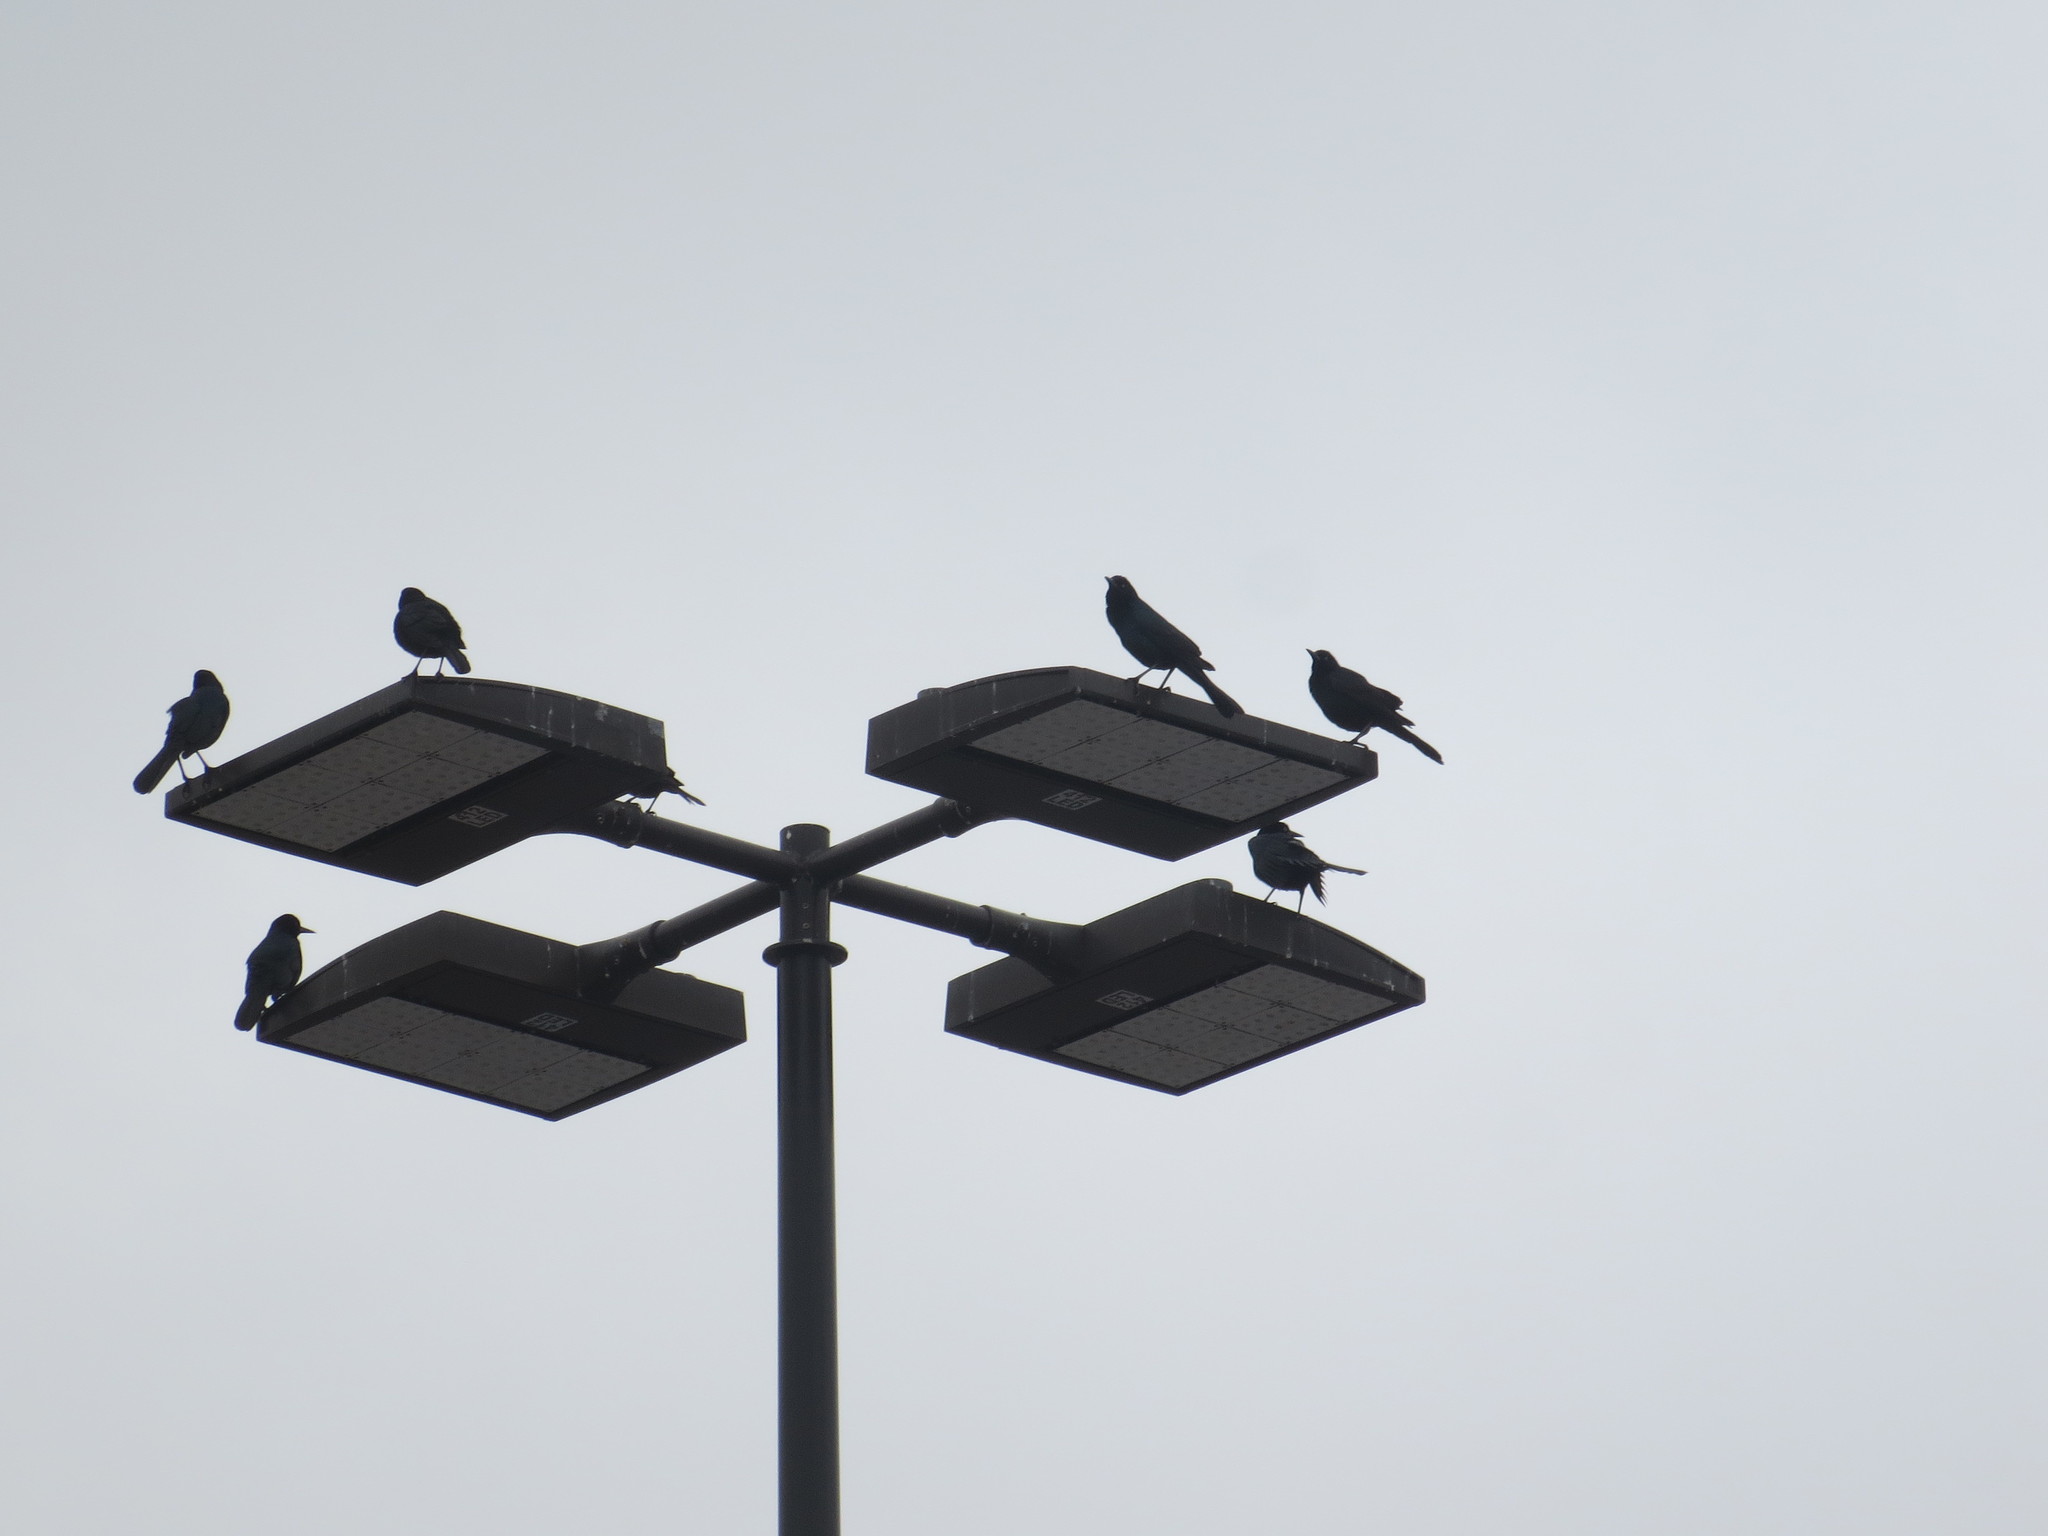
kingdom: Animalia
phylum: Chordata
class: Aves
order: Passeriformes
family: Icteridae
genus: Quiscalus
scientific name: Quiscalus major
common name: Boat-tailed grackle
